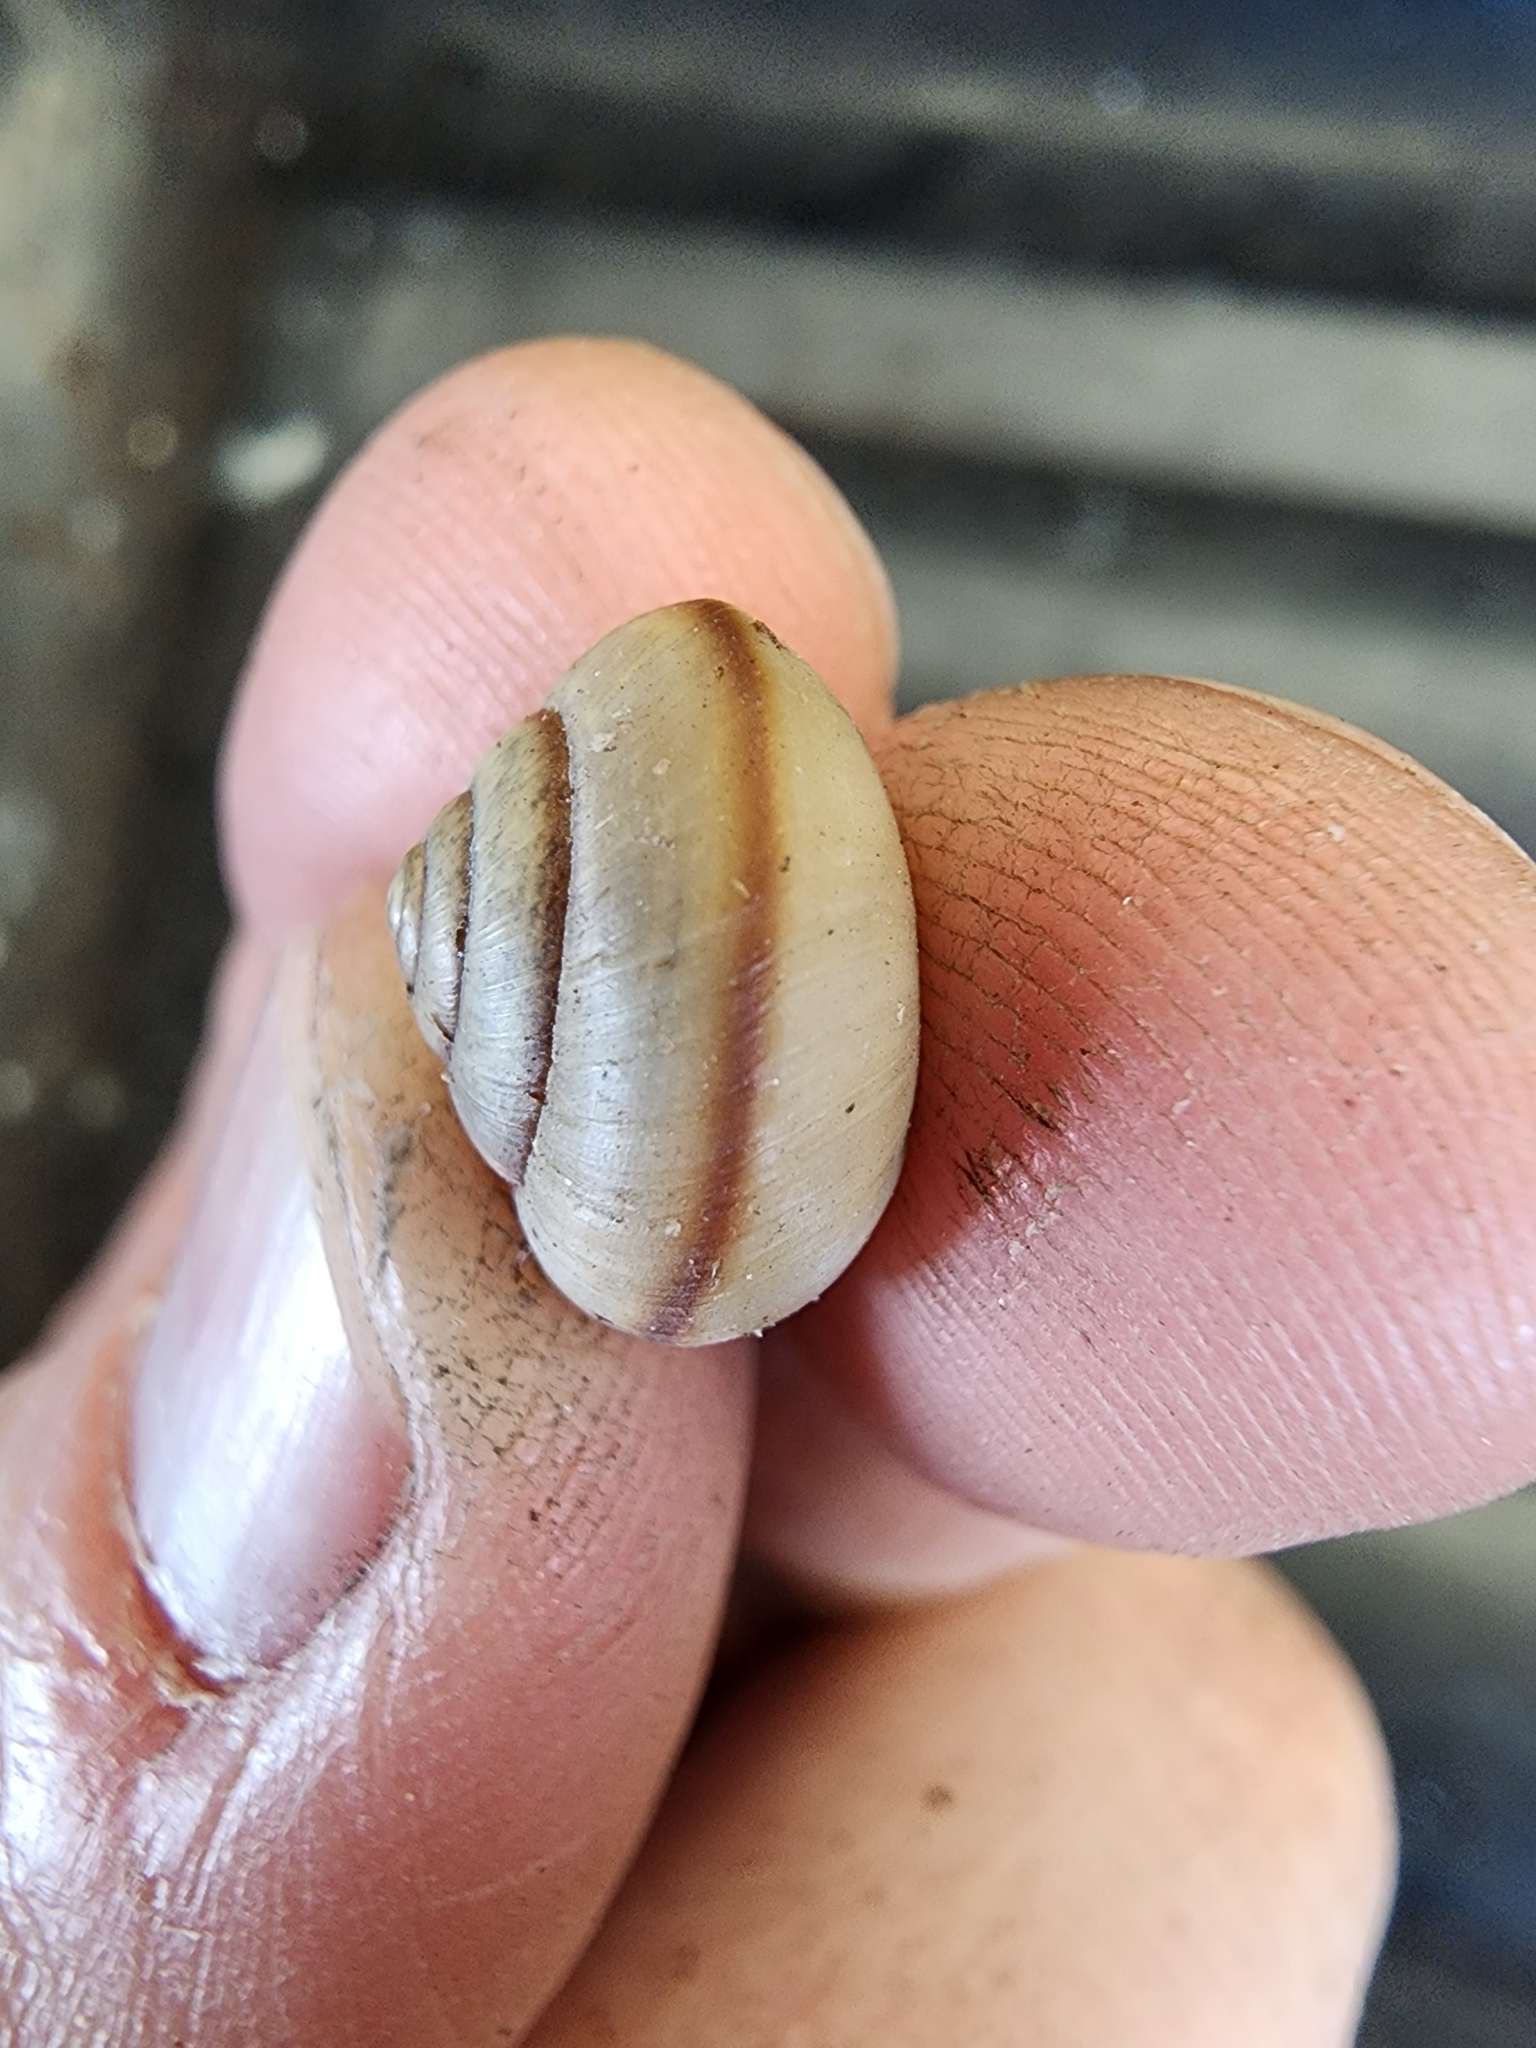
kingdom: Animalia
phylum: Mollusca
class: Gastropoda
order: Stylommatophora
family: Camaenidae
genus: Bradybaena
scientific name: Bradybaena similaris
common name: Asian trampsnail
